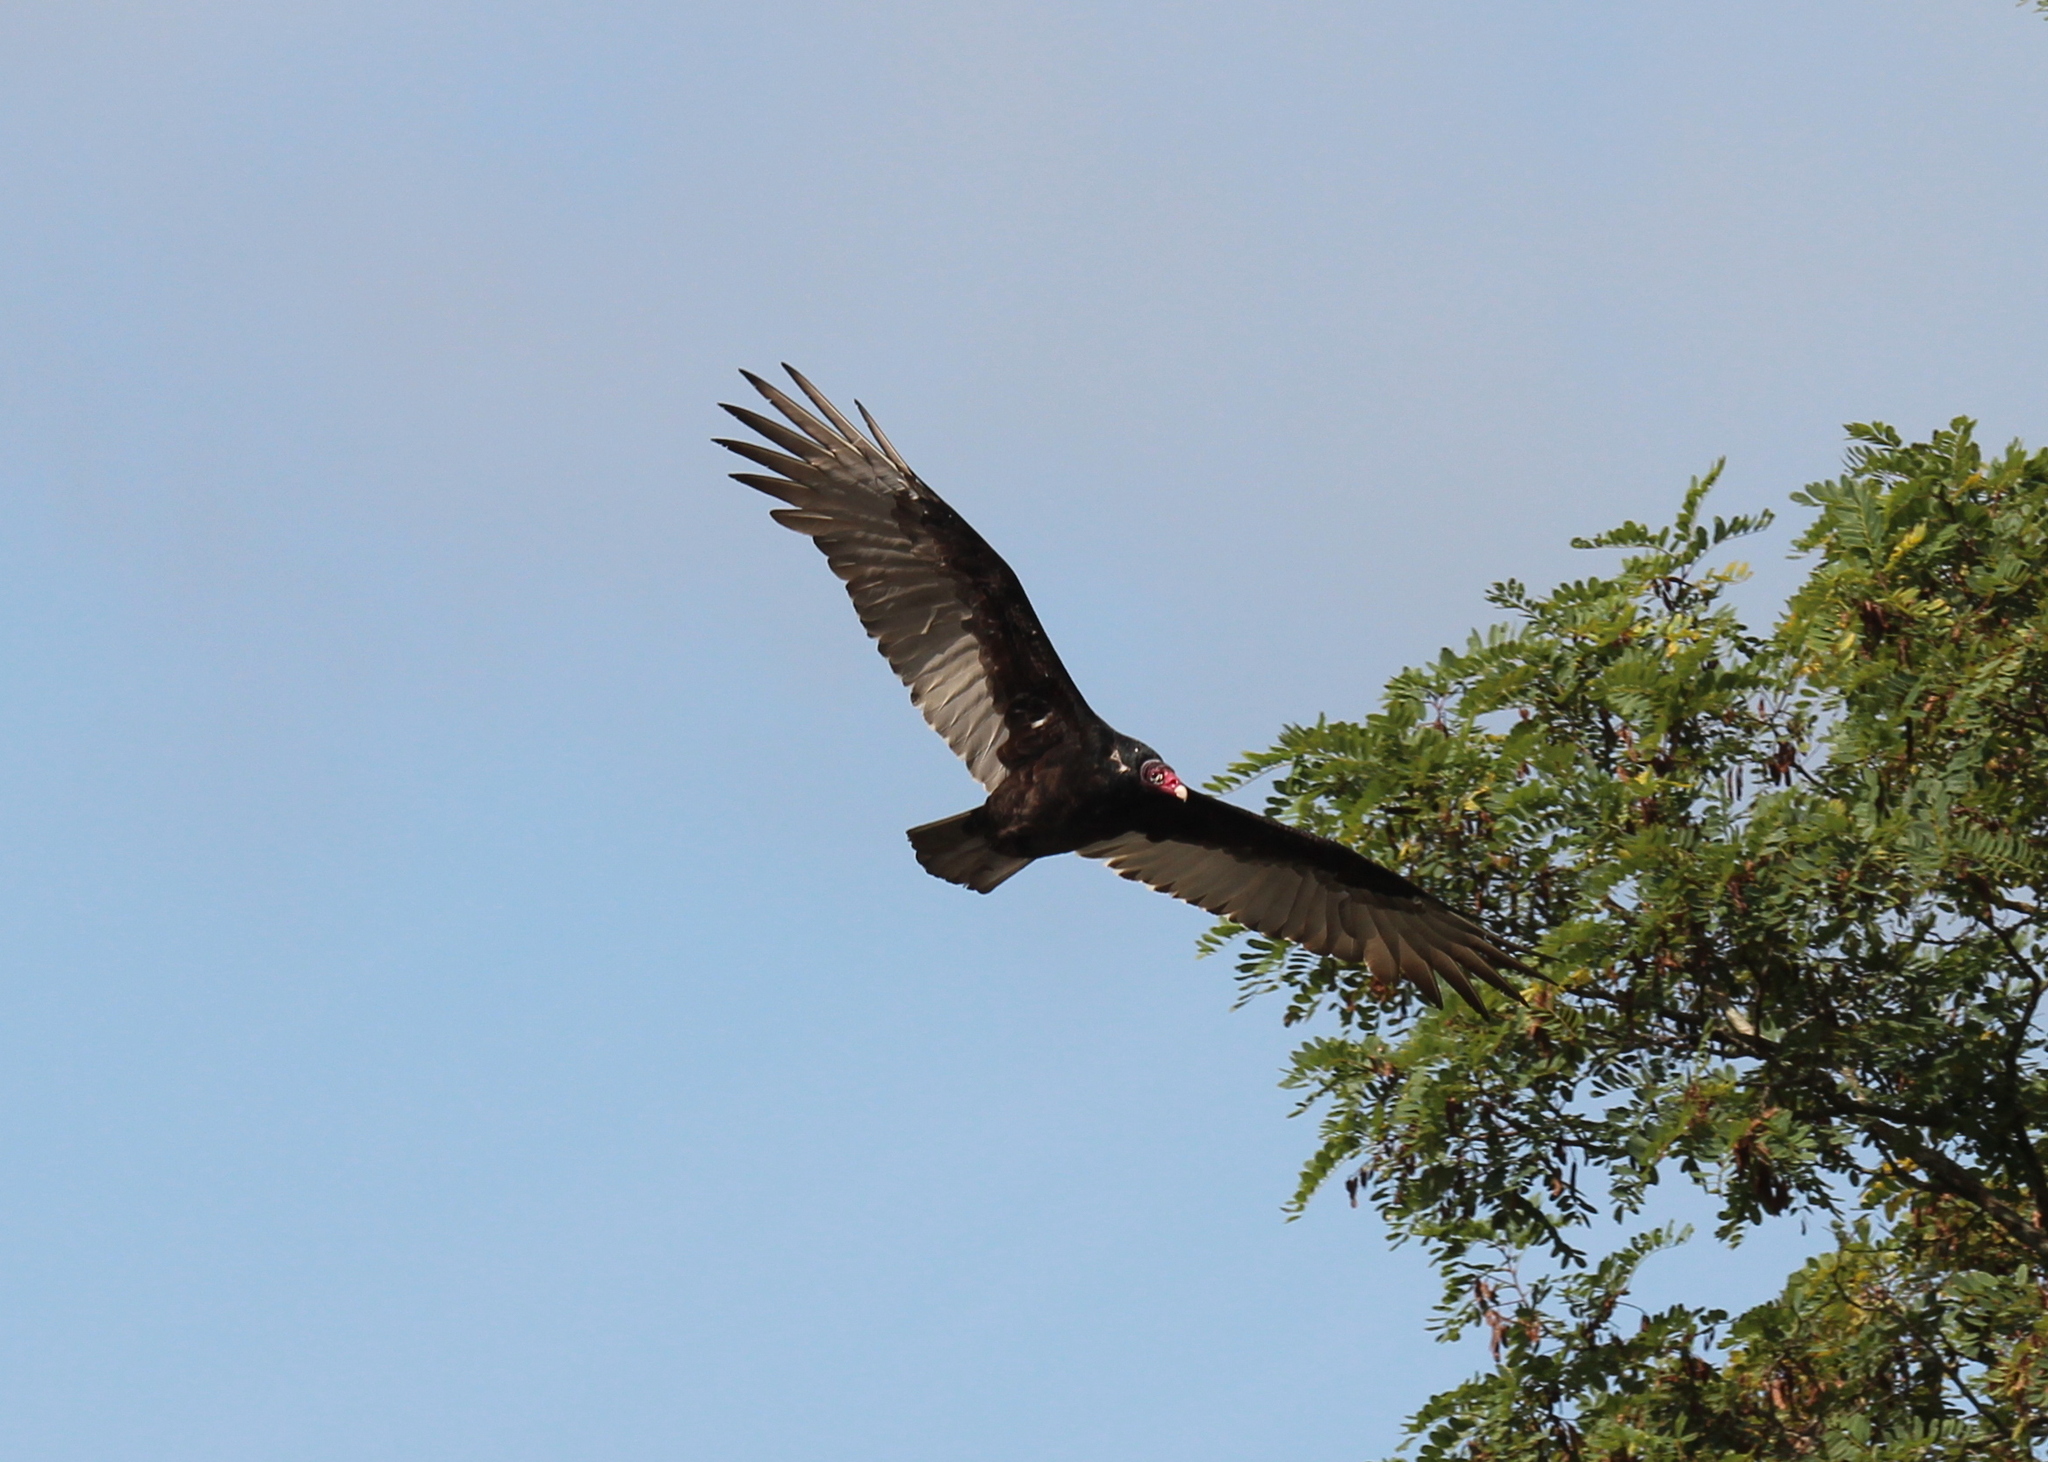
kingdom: Animalia
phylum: Chordata
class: Aves
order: Accipitriformes
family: Cathartidae
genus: Cathartes
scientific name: Cathartes aura
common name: Turkey vulture
